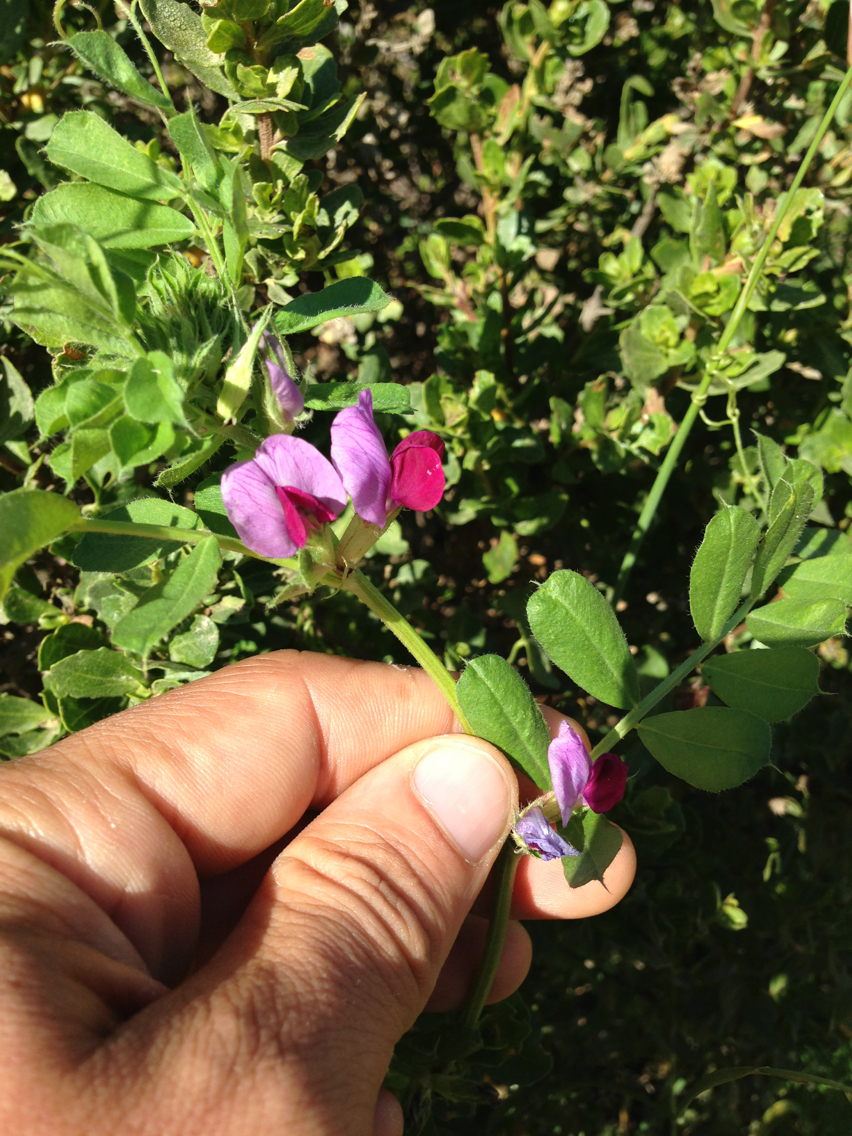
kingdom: Plantae
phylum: Tracheophyta
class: Magnoliopsida
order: Fabales
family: Fabaceae
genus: Vicia
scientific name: Vicia sativa
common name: Garden vetch
